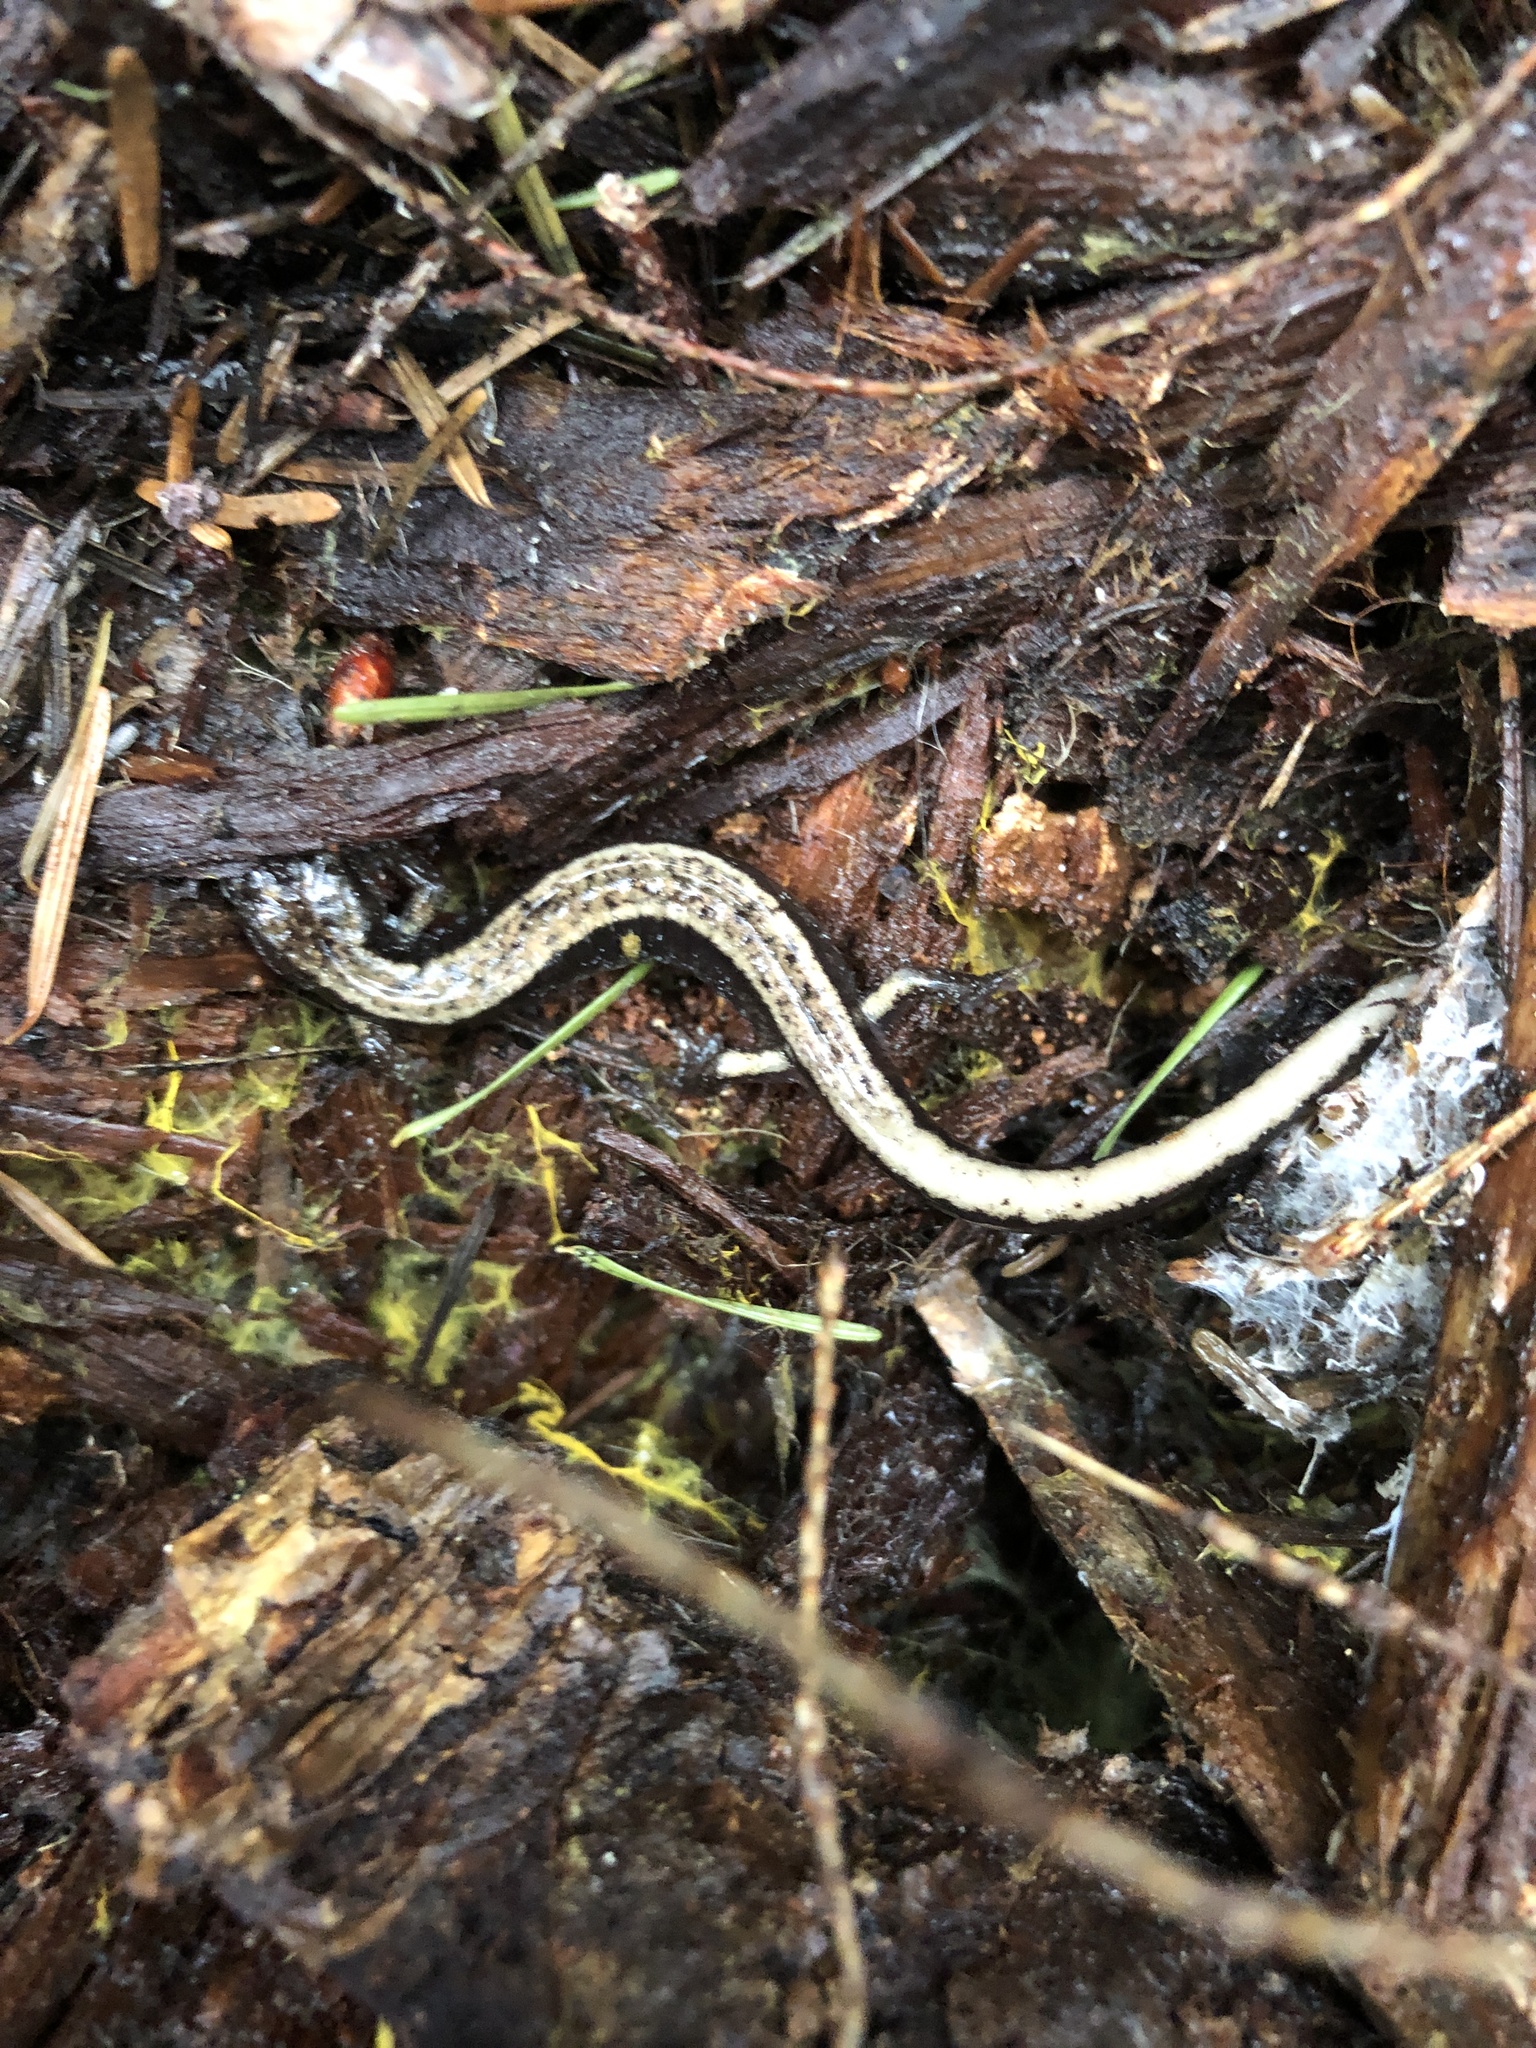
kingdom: Animalia
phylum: Chordata
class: Amphibia
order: Caudata
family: Plethodontidae
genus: Plethodon
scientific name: Plethodon vehiculum
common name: Western red-backed salamander
